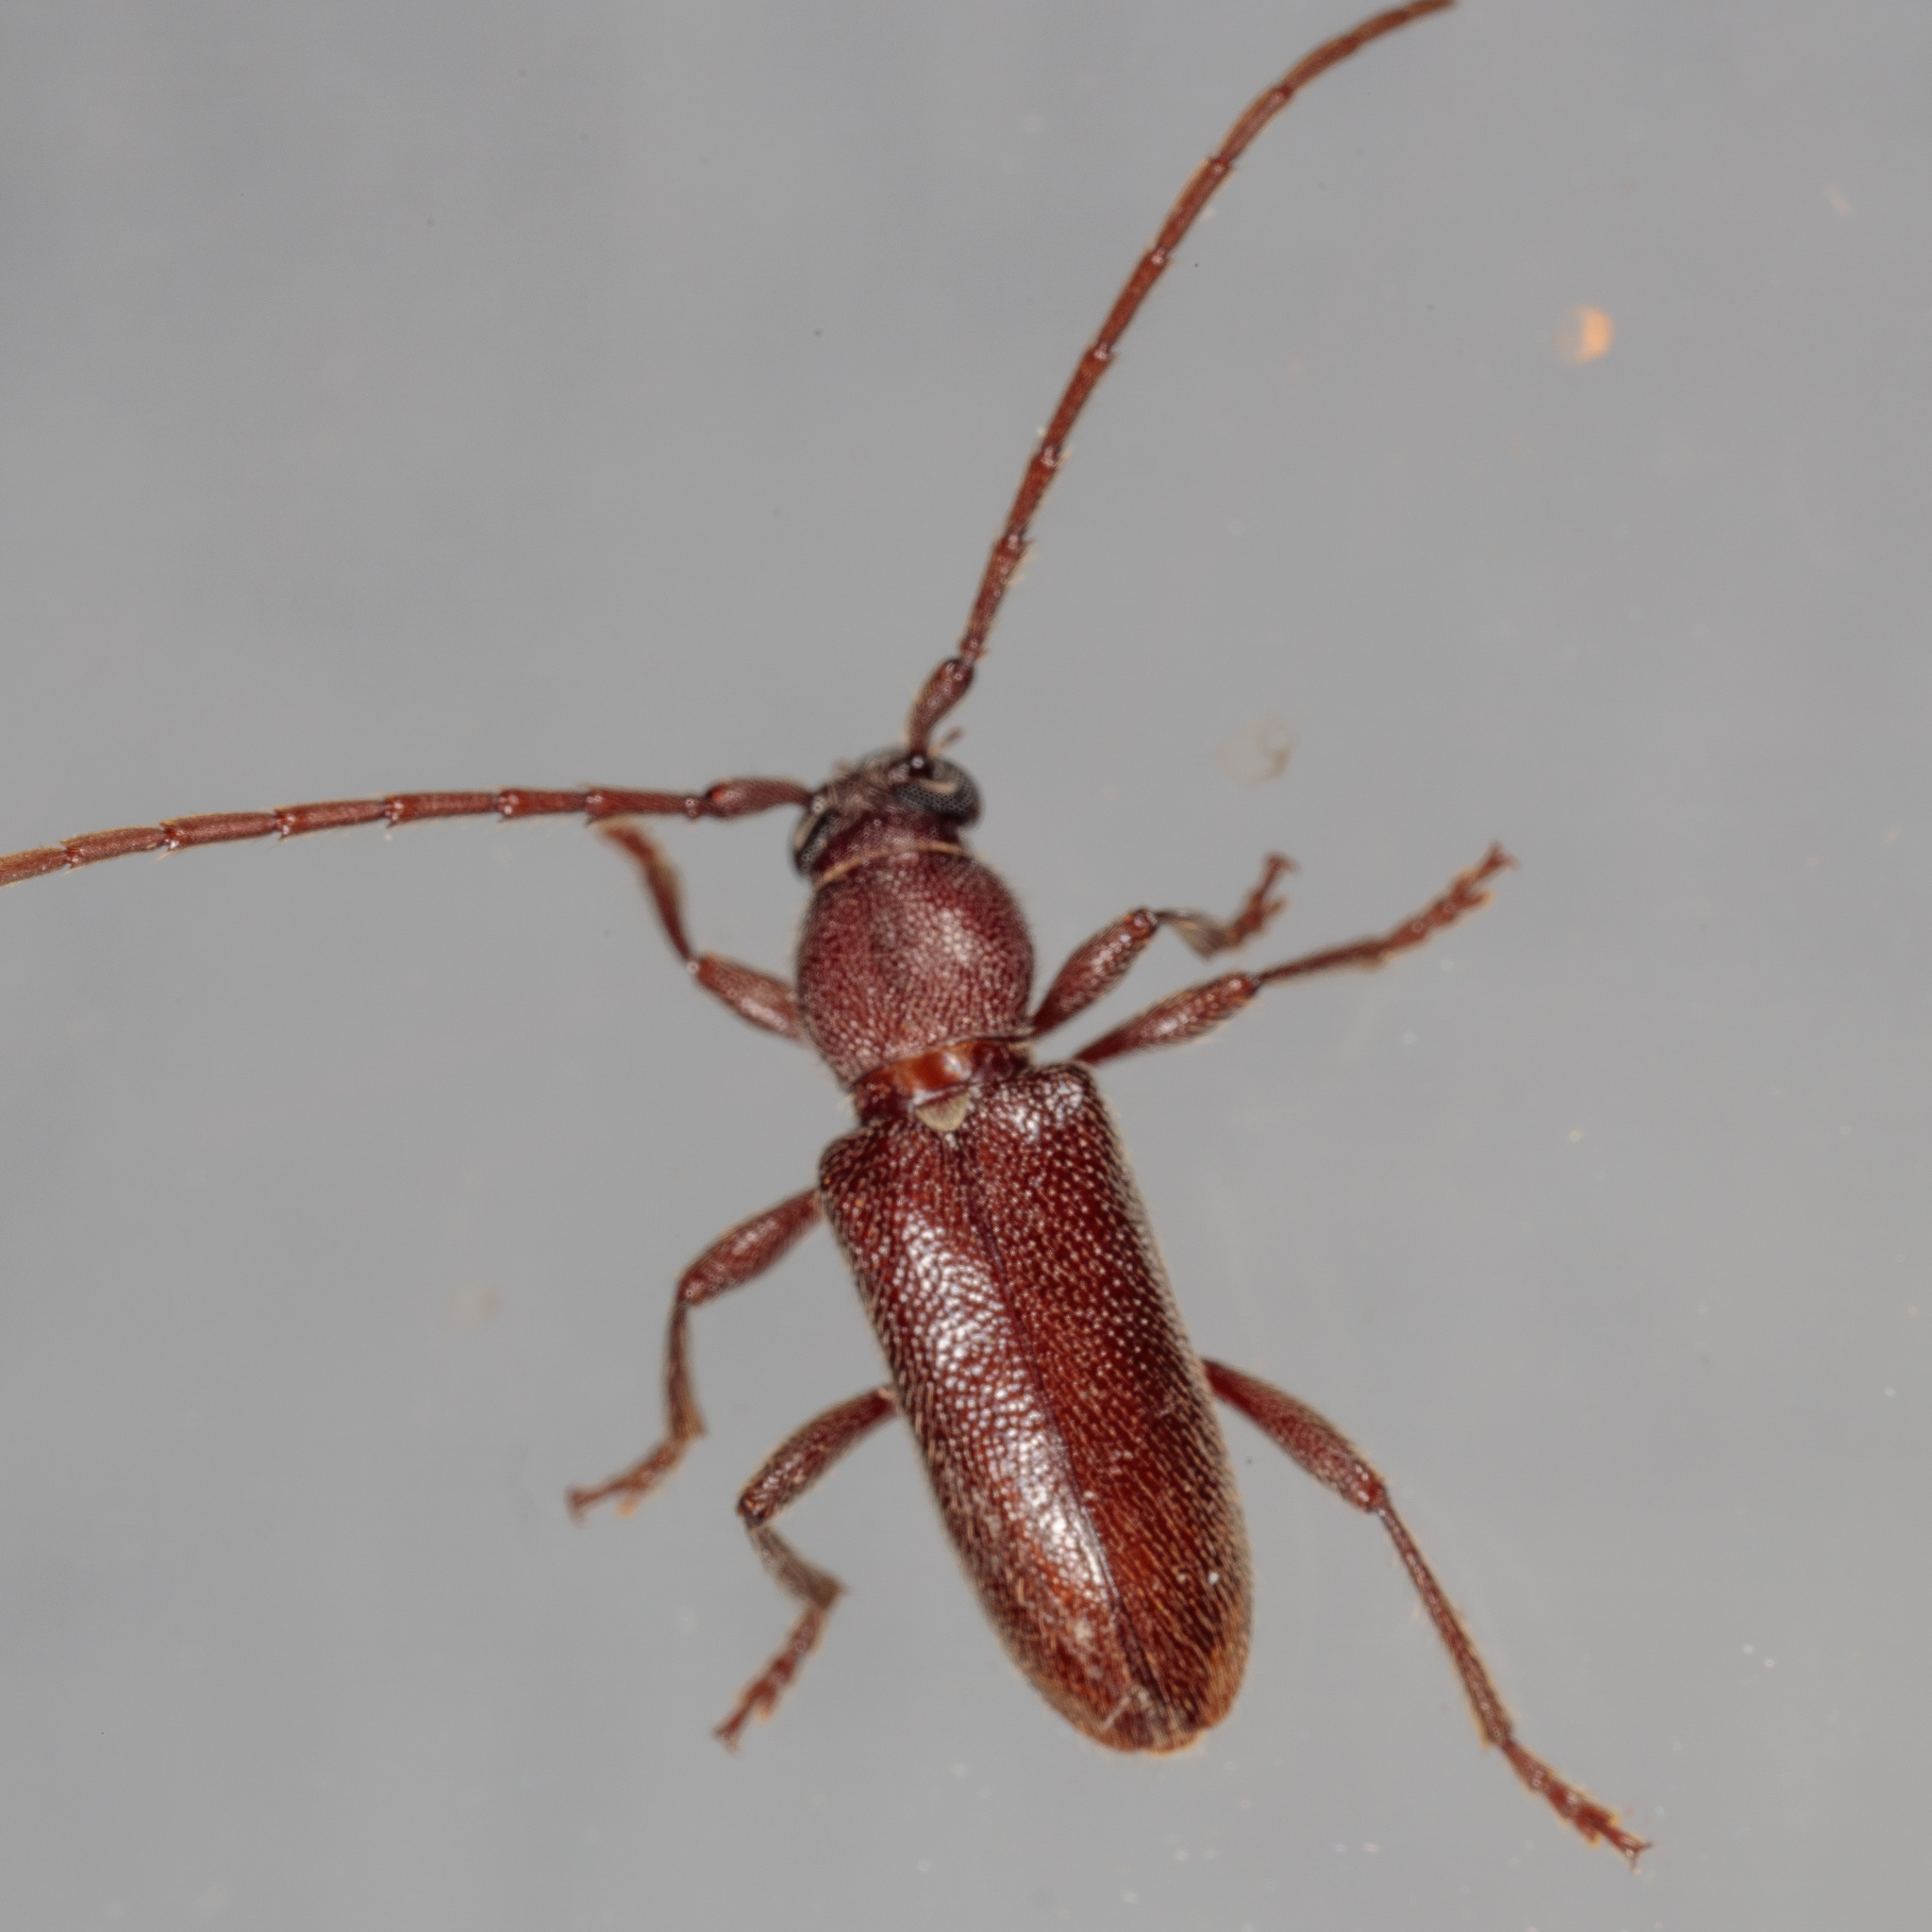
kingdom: Animalia
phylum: Arthropoda
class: Insecta
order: Coleoptera
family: Cerambycidae
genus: Anelaphus
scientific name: Anelaphus moestus
